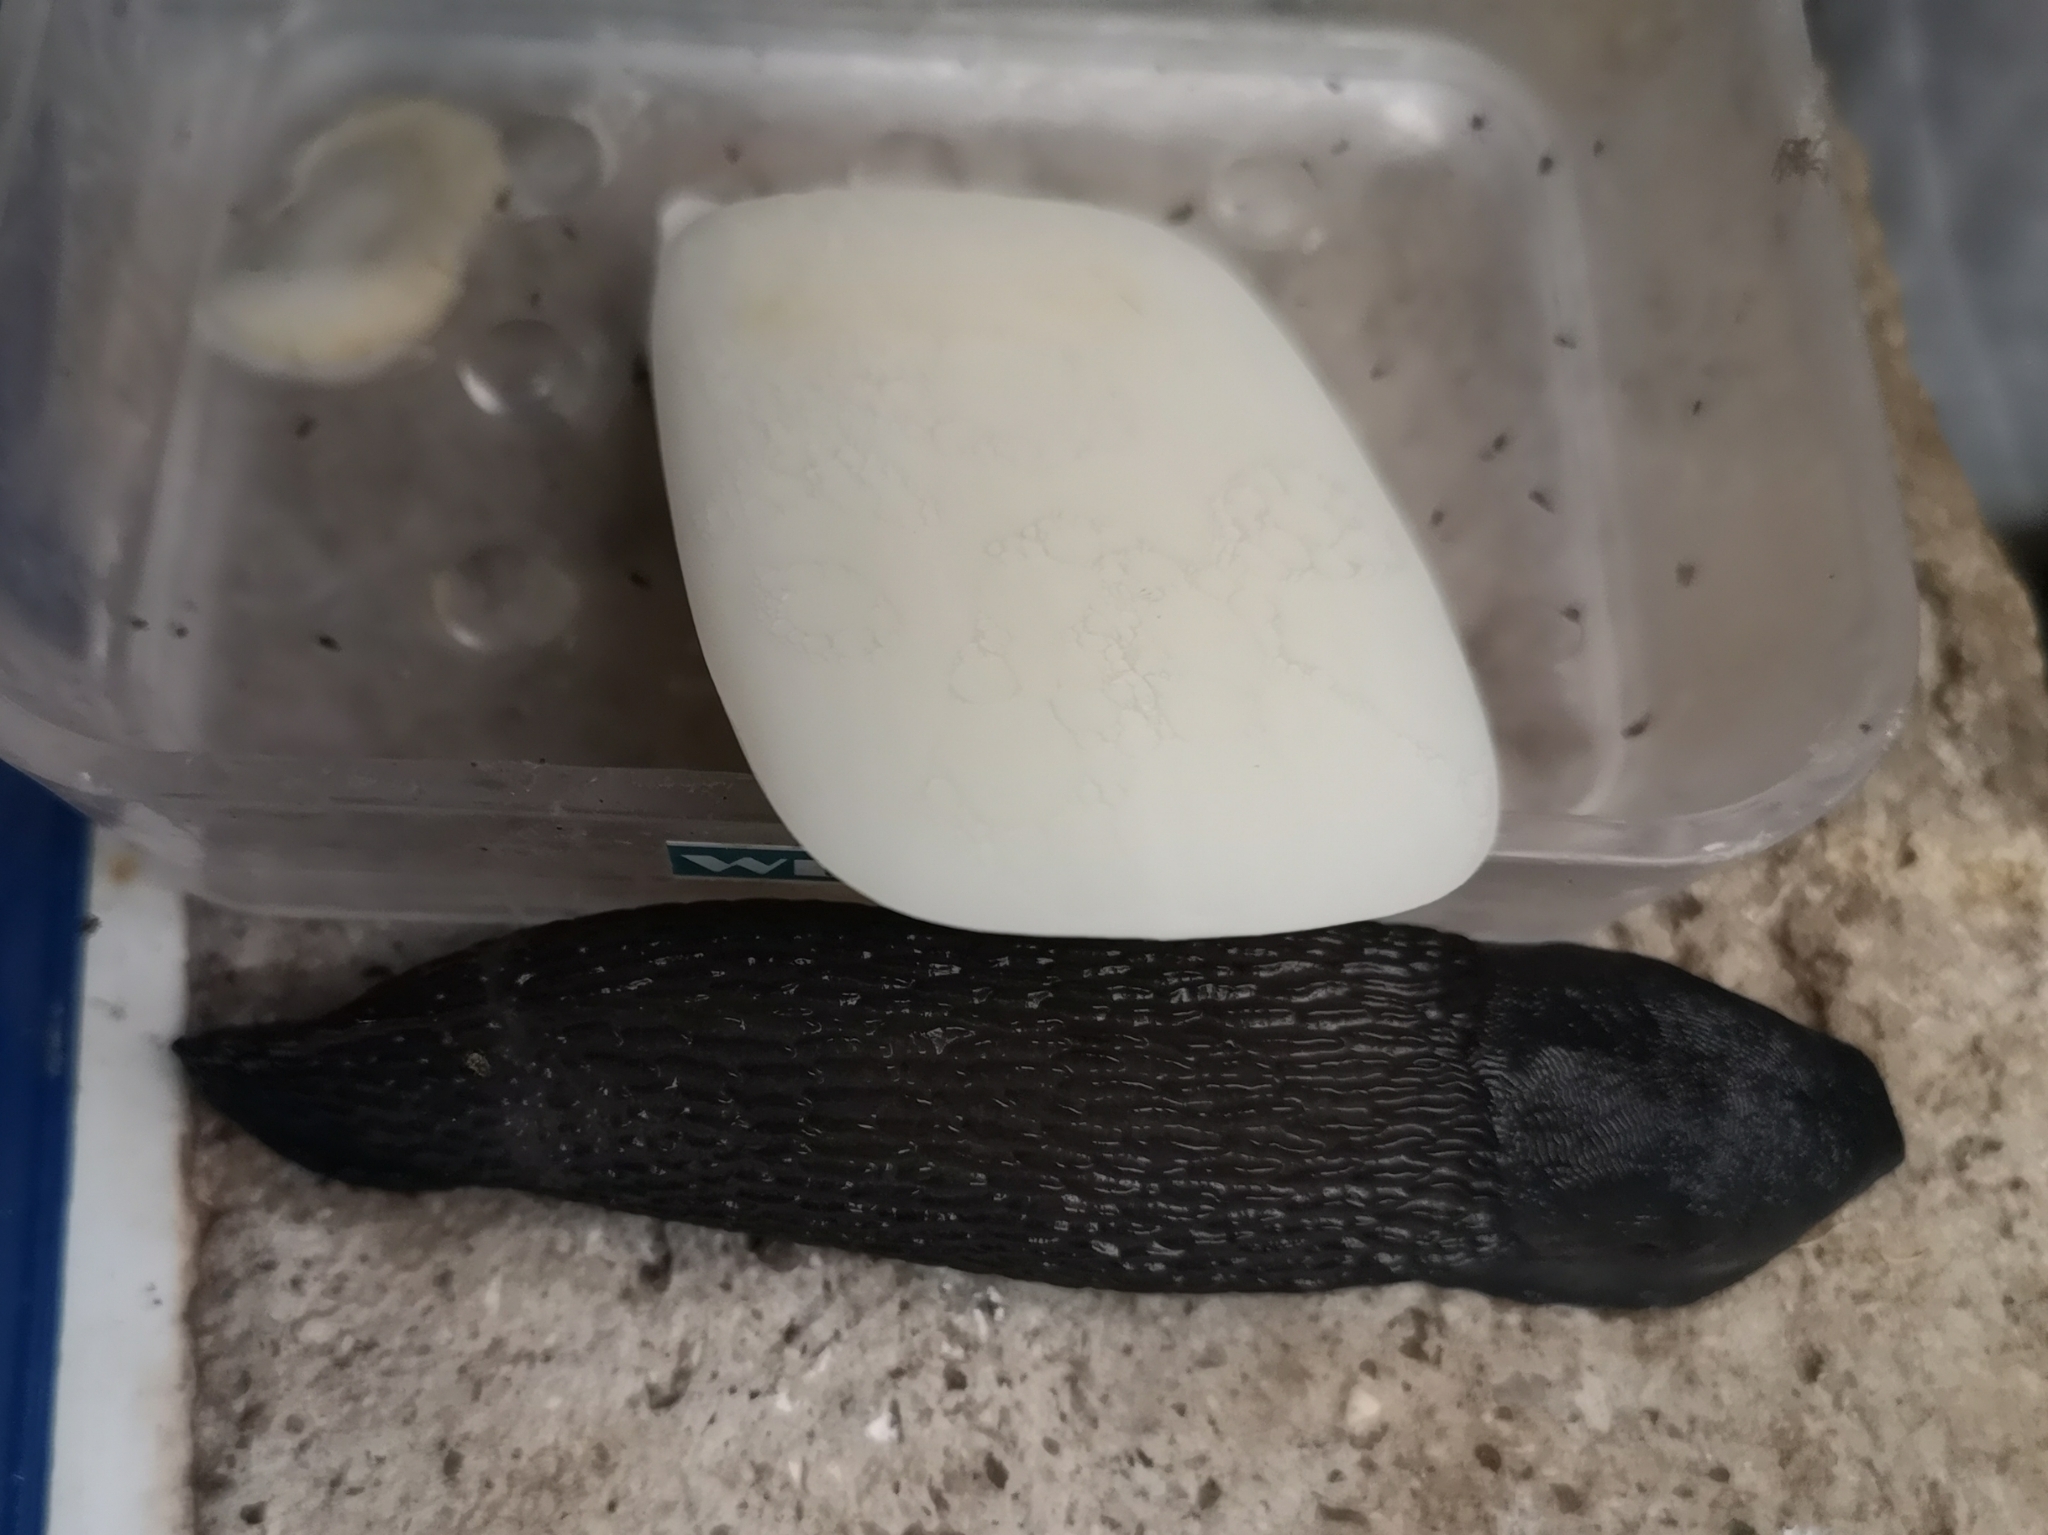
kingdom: Animalia
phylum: Mollusca
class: Gastropoda
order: Stylommatophora
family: Limacidae
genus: Limax
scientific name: Limax cinereoniger
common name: Ash-black slug
